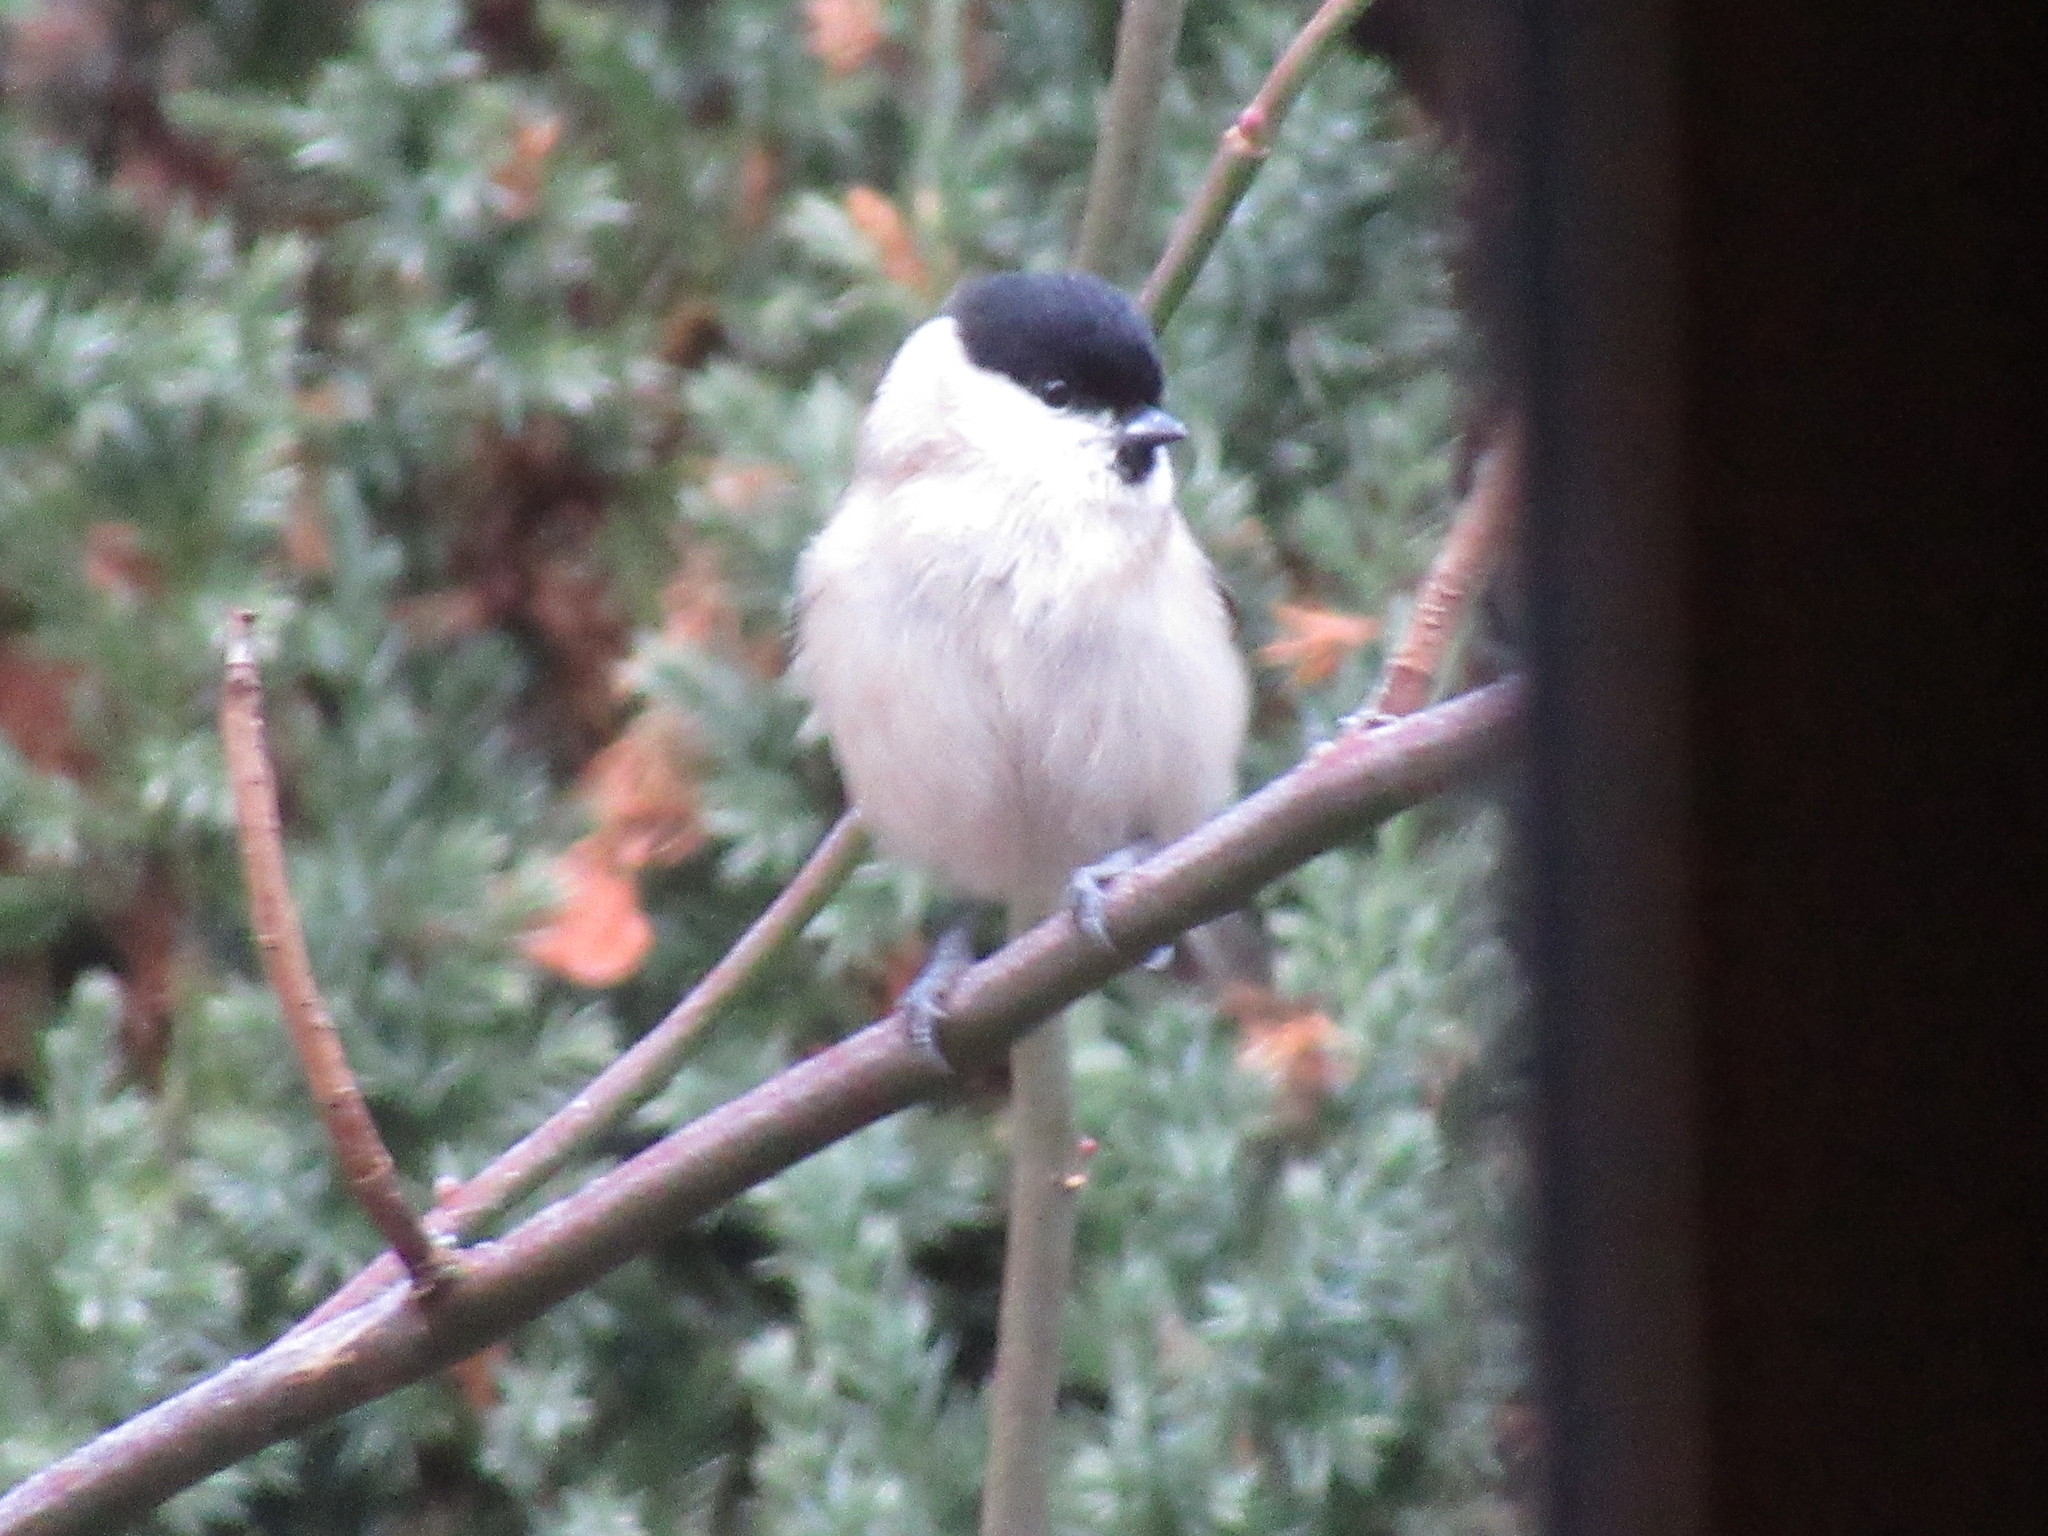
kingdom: Animalia
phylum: Chordata
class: Aves
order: Passeriformes
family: Paridae
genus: Poecile
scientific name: Poecile palustris
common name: Marsh tit
